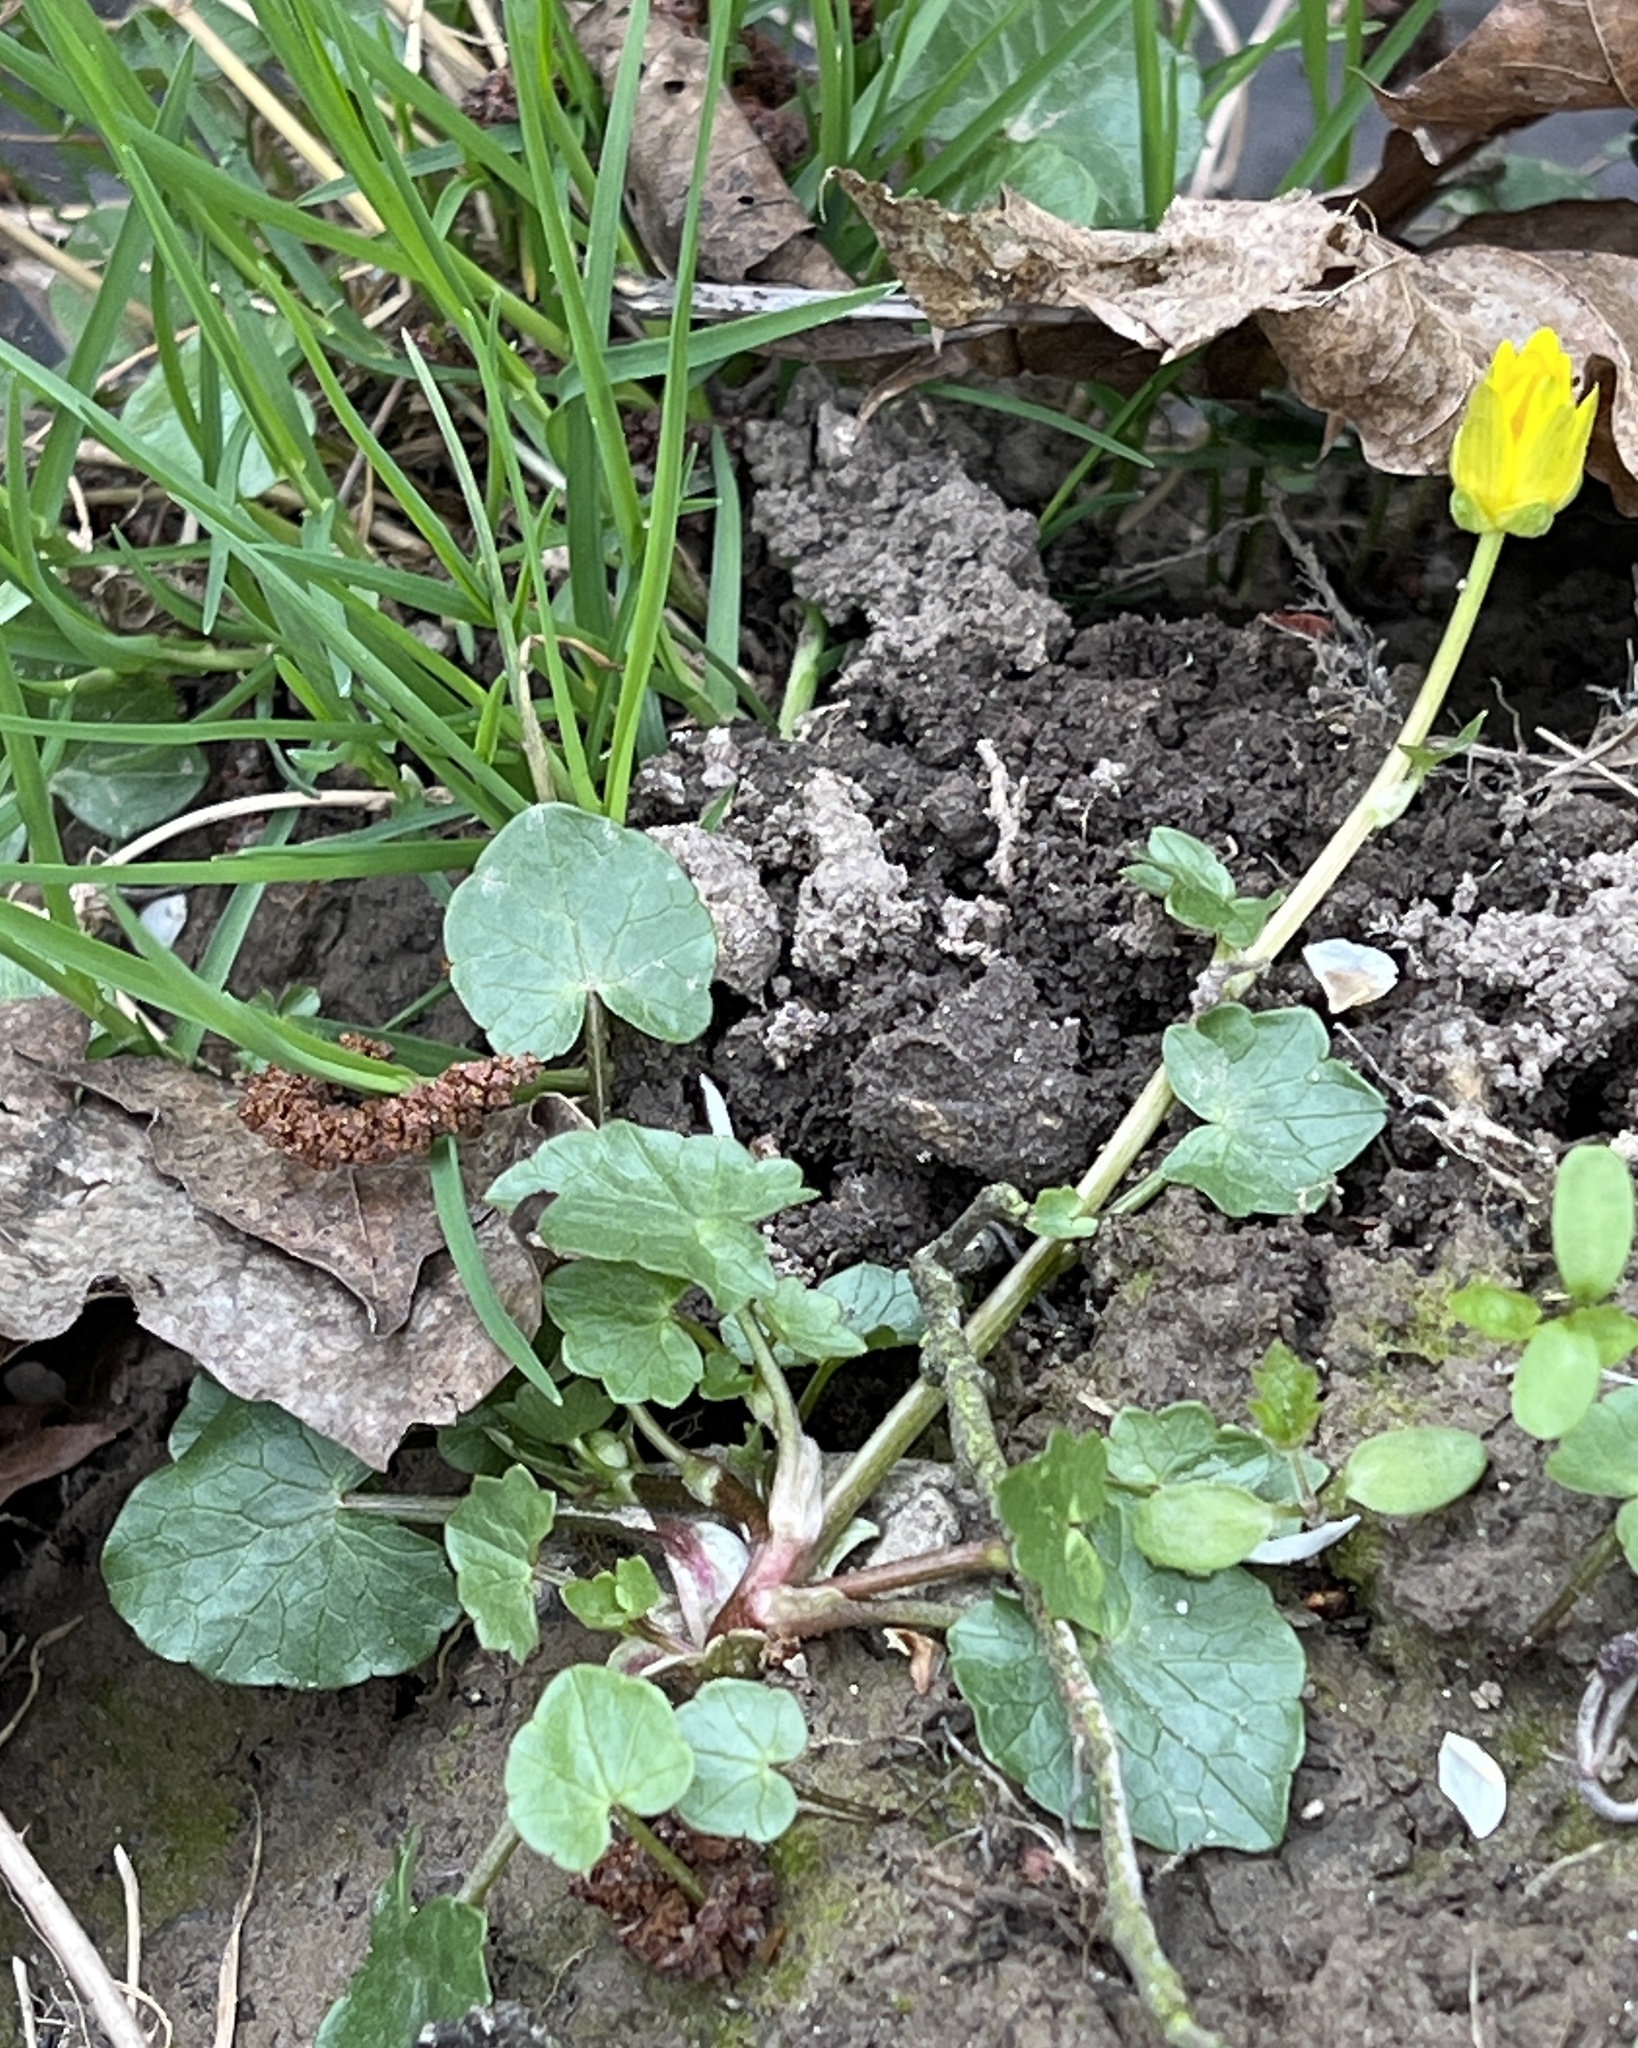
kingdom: Plantae
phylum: Tracheophyta
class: Magnoliopsida
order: Ranunculales
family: Ranunculaceae
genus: Ficaria
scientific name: Ficaria verna
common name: Lesser celandine
